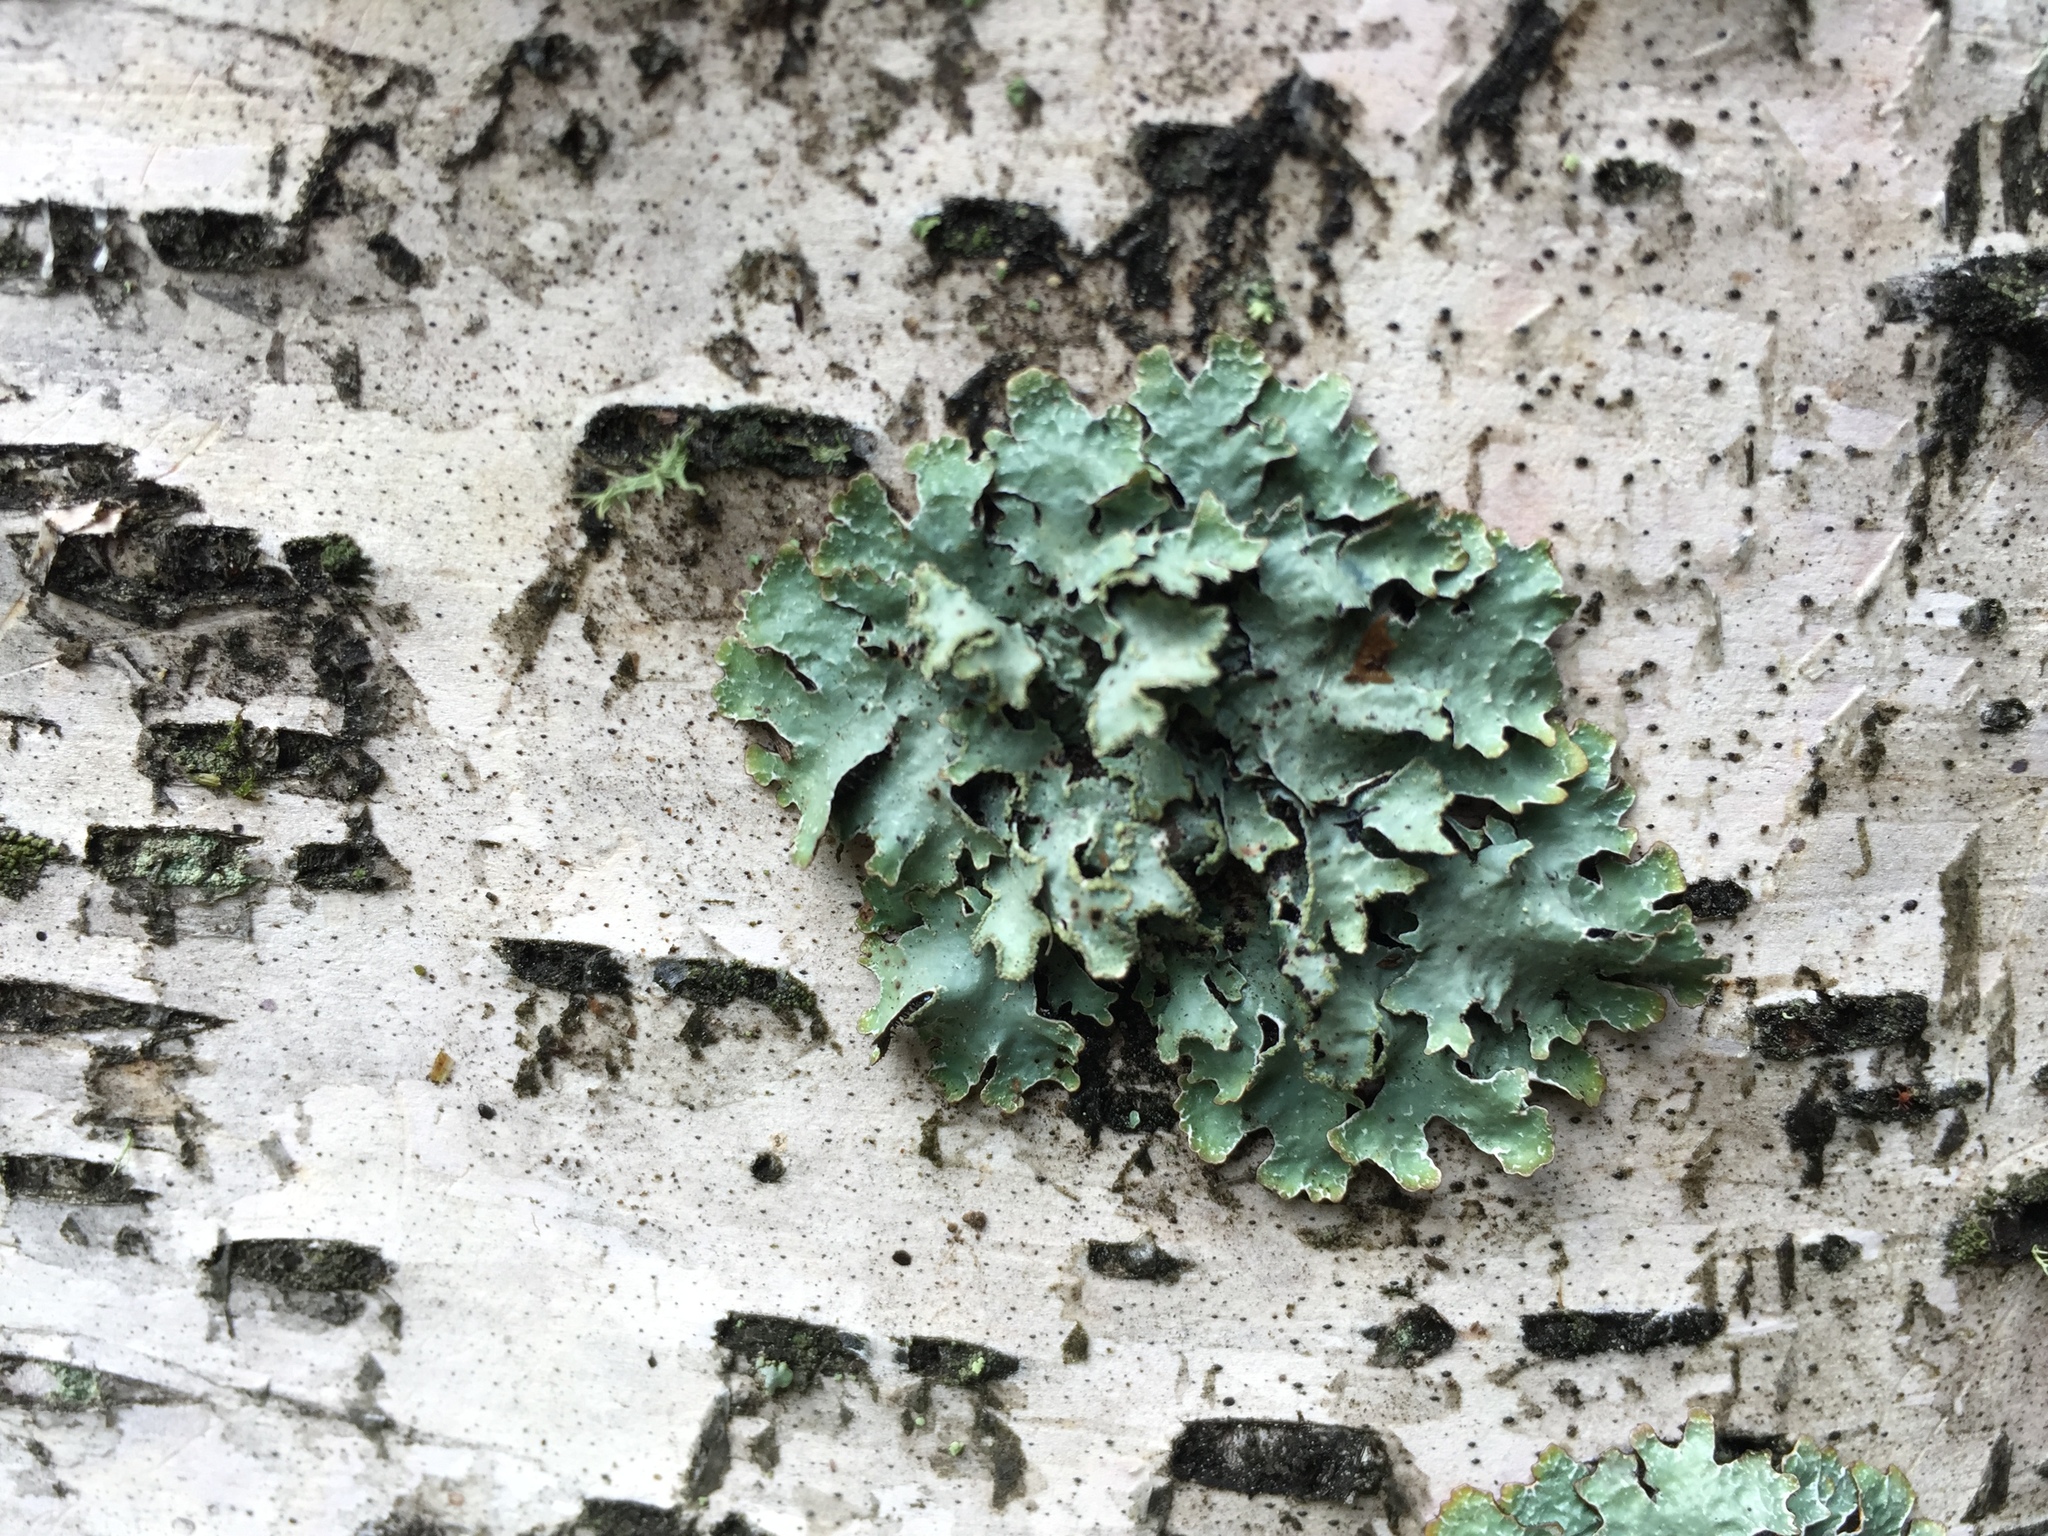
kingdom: Fungi
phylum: Ascomycota
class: Lecanoromycetes
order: Lecanorales
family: Parmeliaceae
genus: Parmelia
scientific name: Parmelia sulcata
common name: Netted shield lichen
